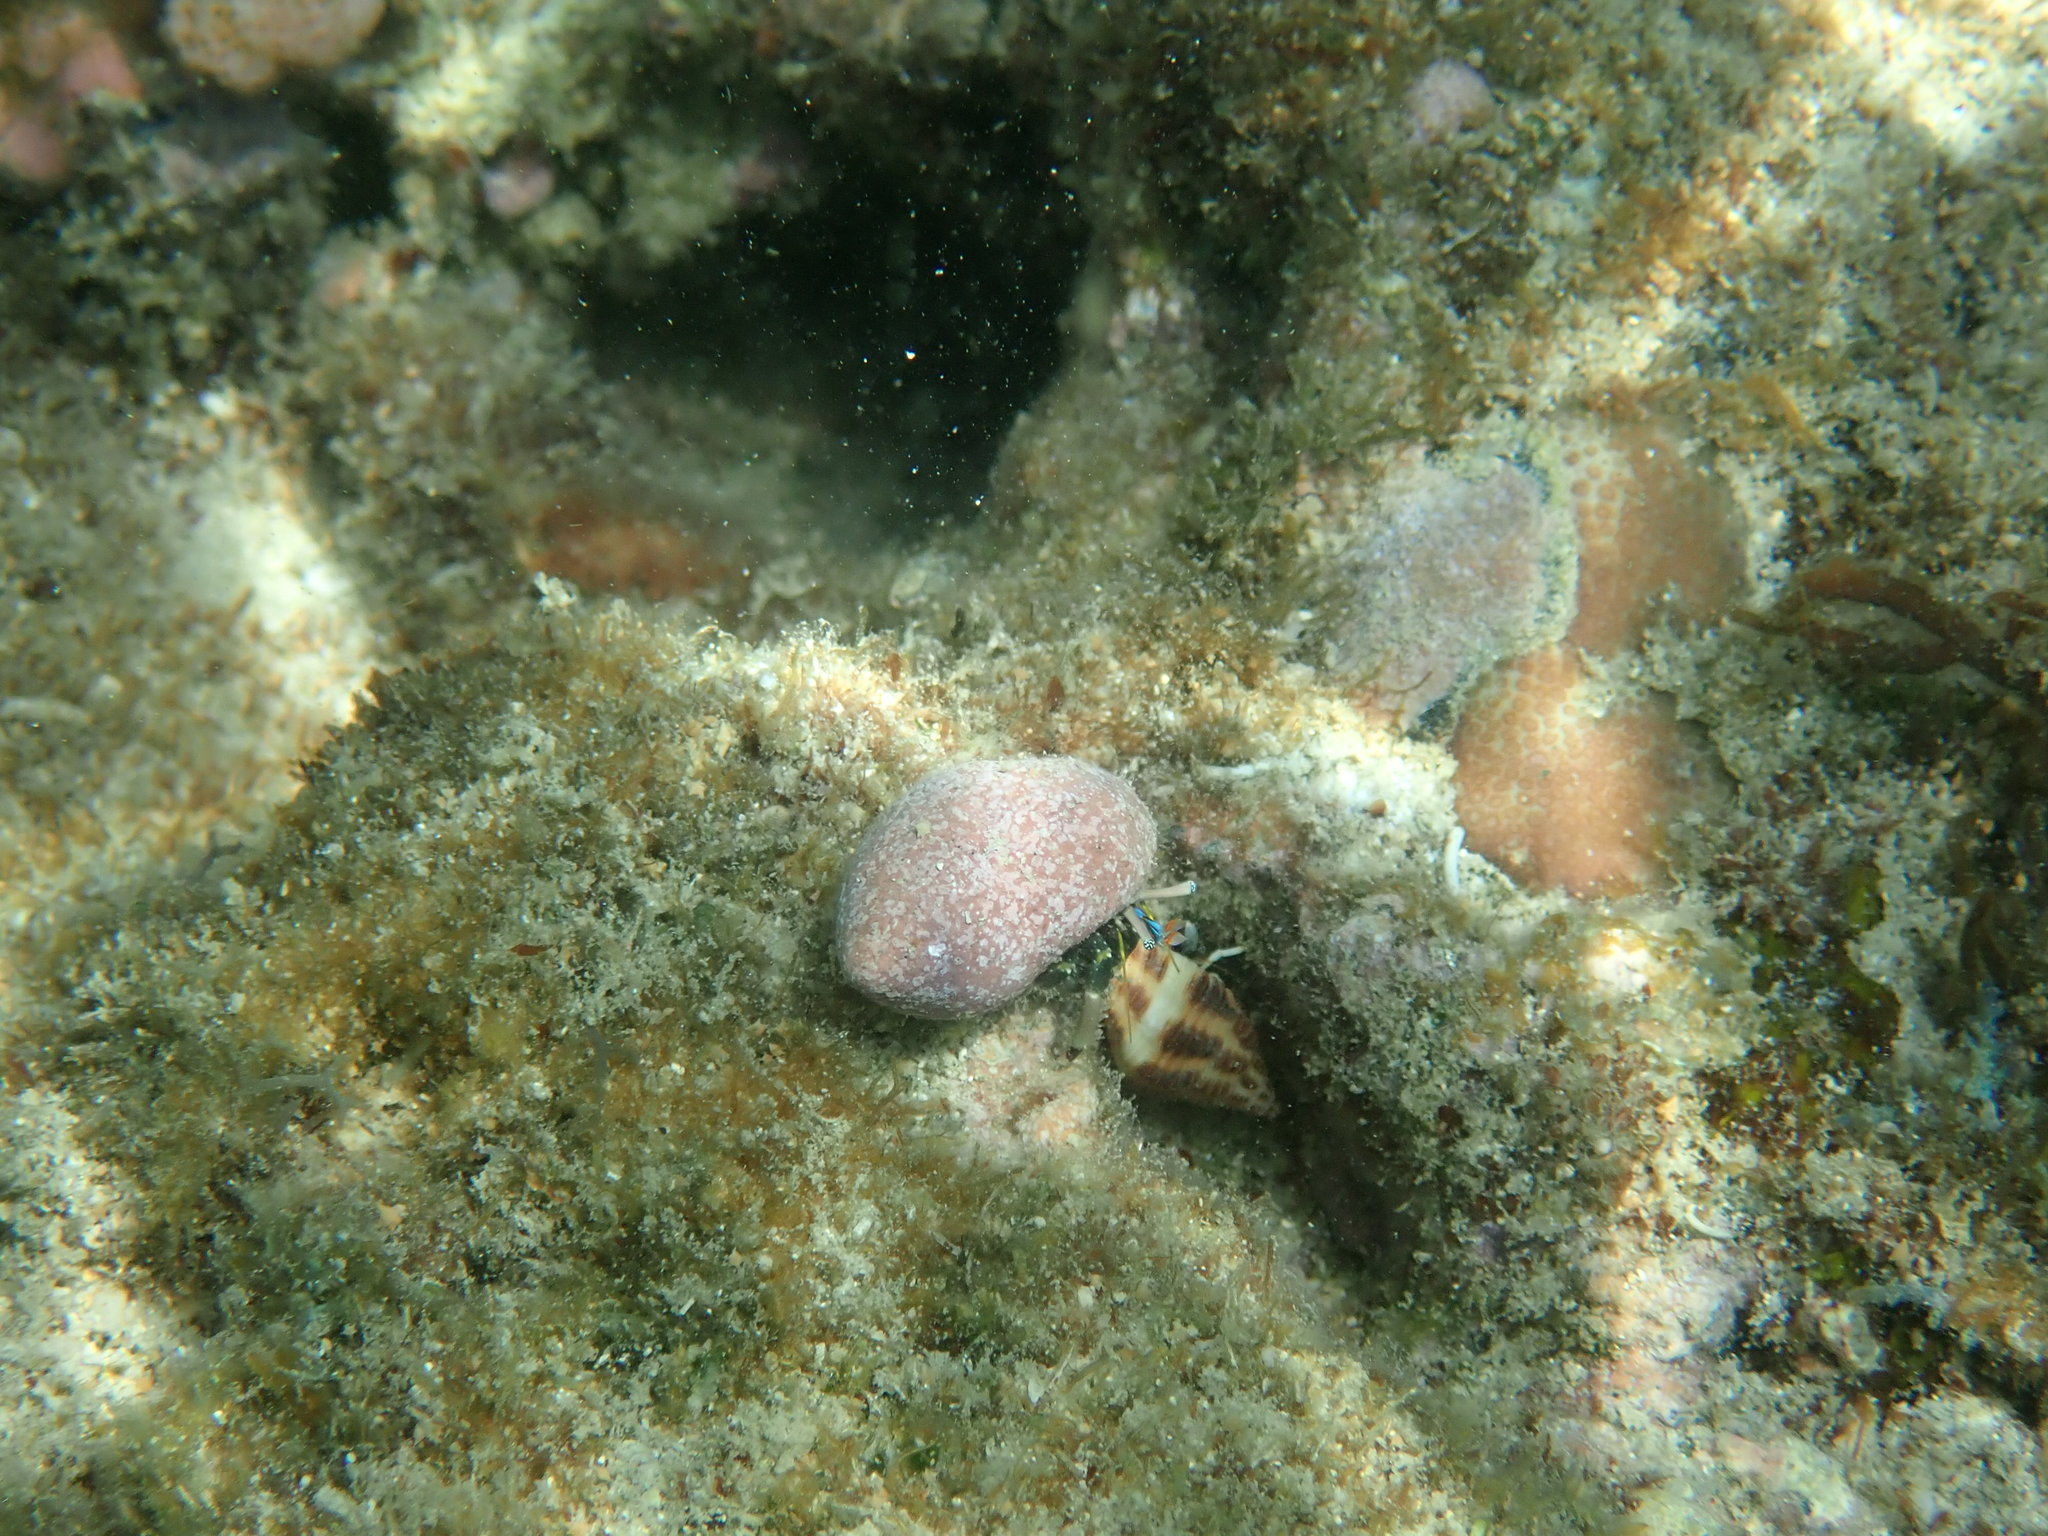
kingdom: Animalia
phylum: Arthropoda
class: Malacostraca
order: Decapoda
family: Diogenidae
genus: Calcinus
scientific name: Calcinus latens
